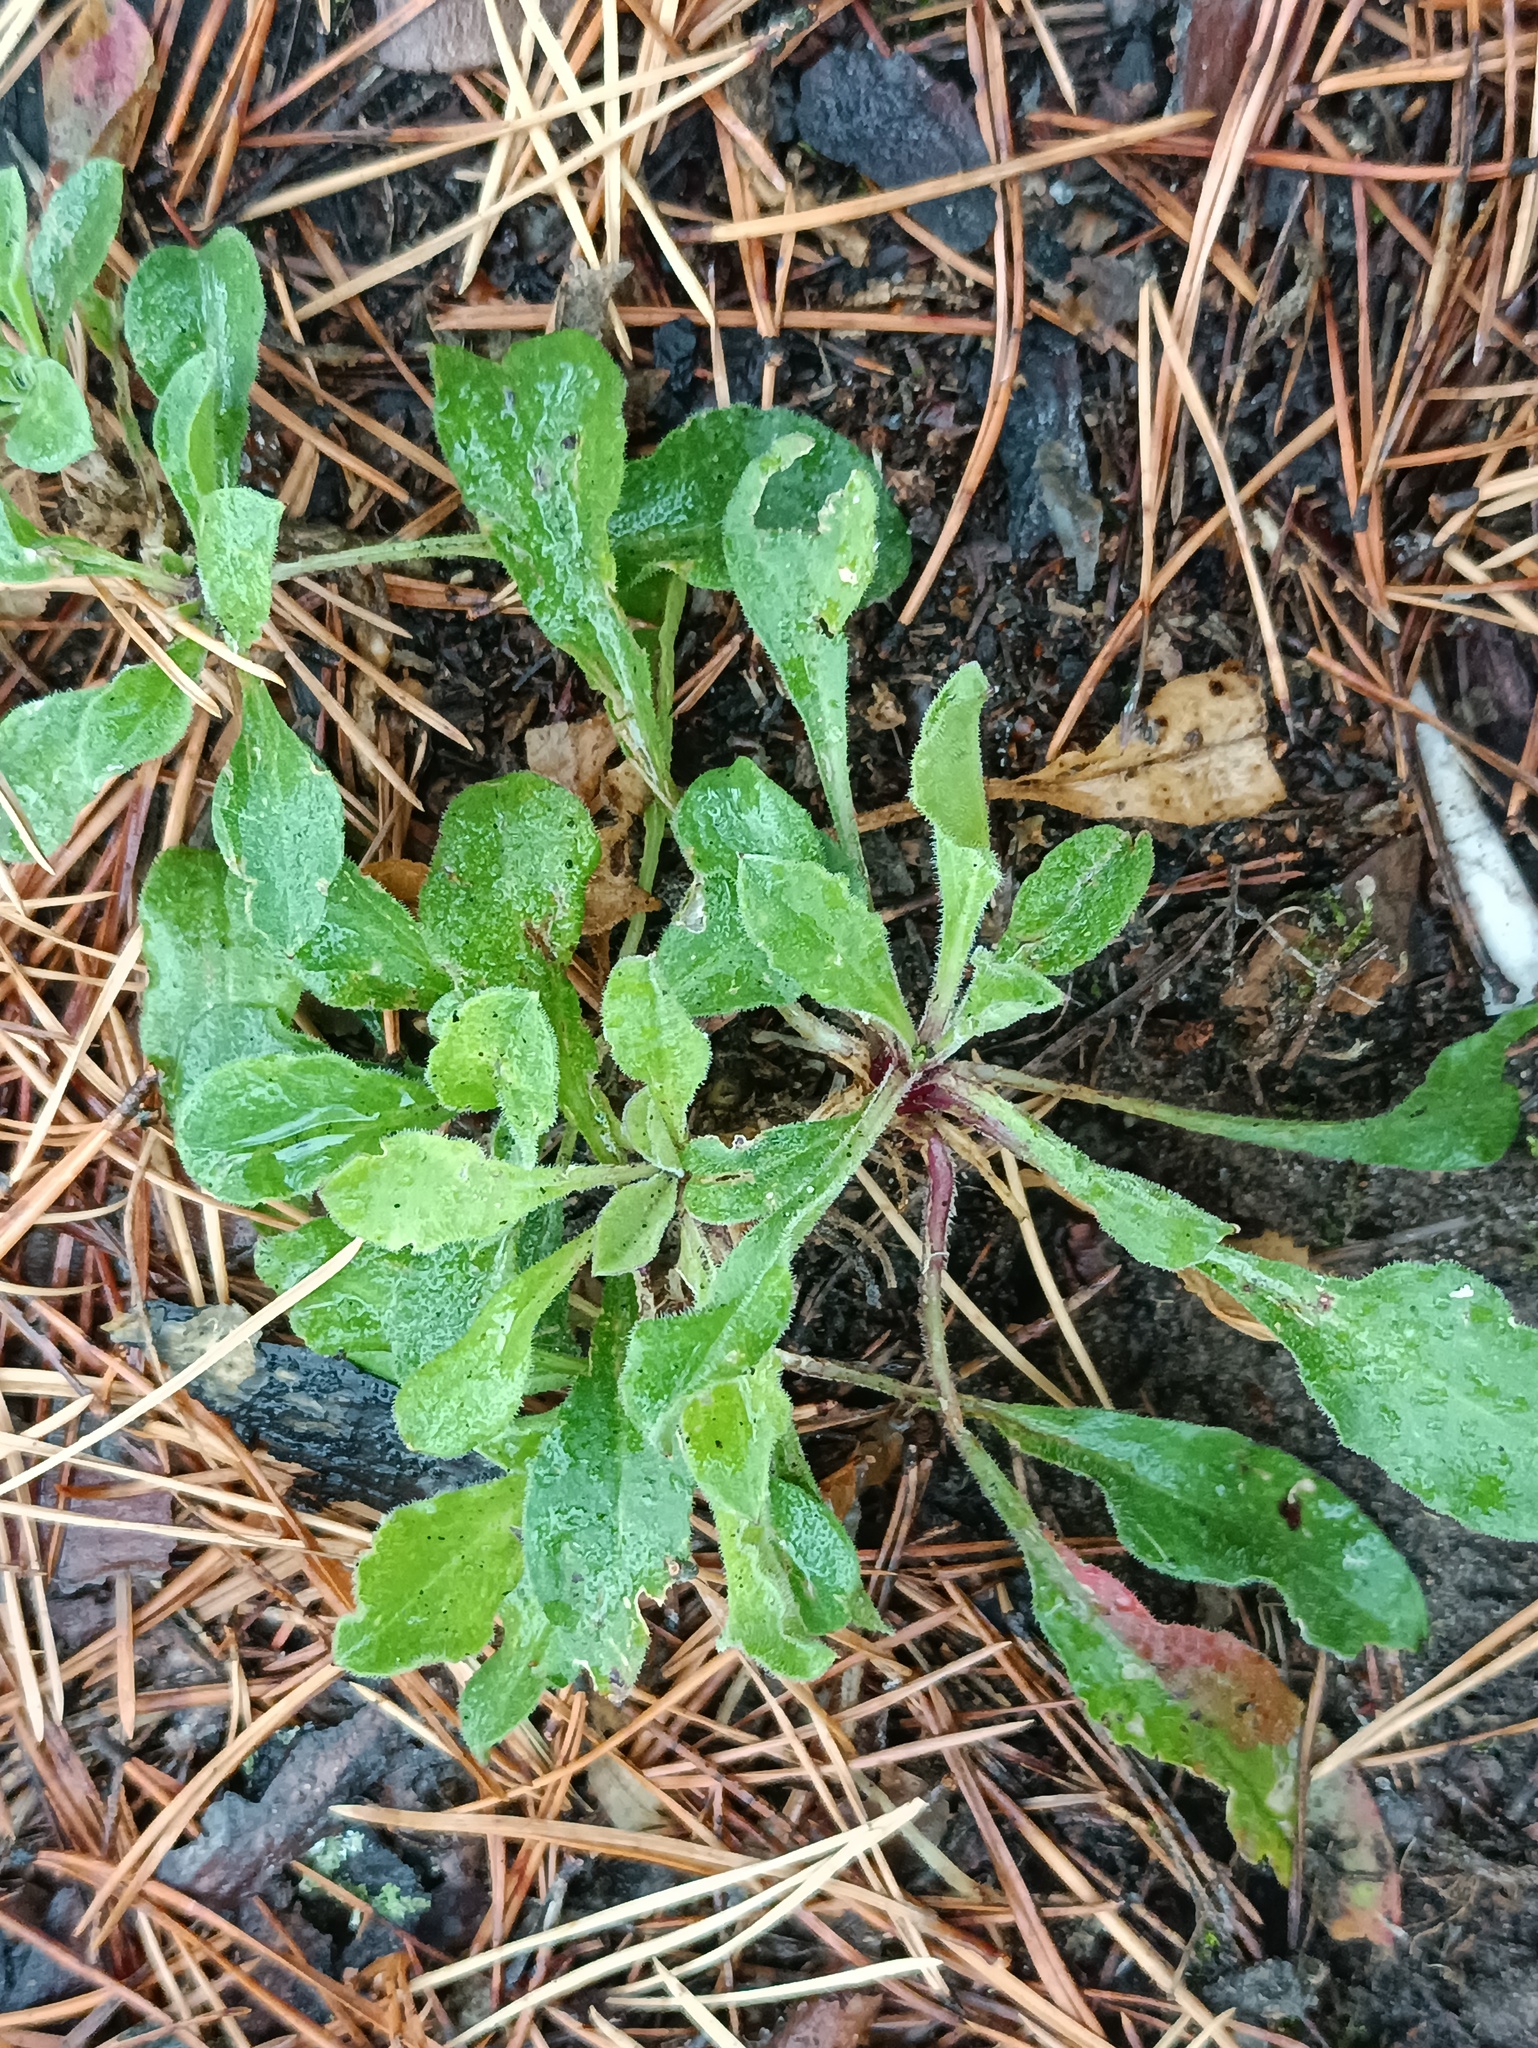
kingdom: Plantae
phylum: Tracheophyta
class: Magnoliopsida
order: Caryophyllales
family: Caryophyllaceae
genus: Silene
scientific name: Silene nutans
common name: Nottingham catchfly
